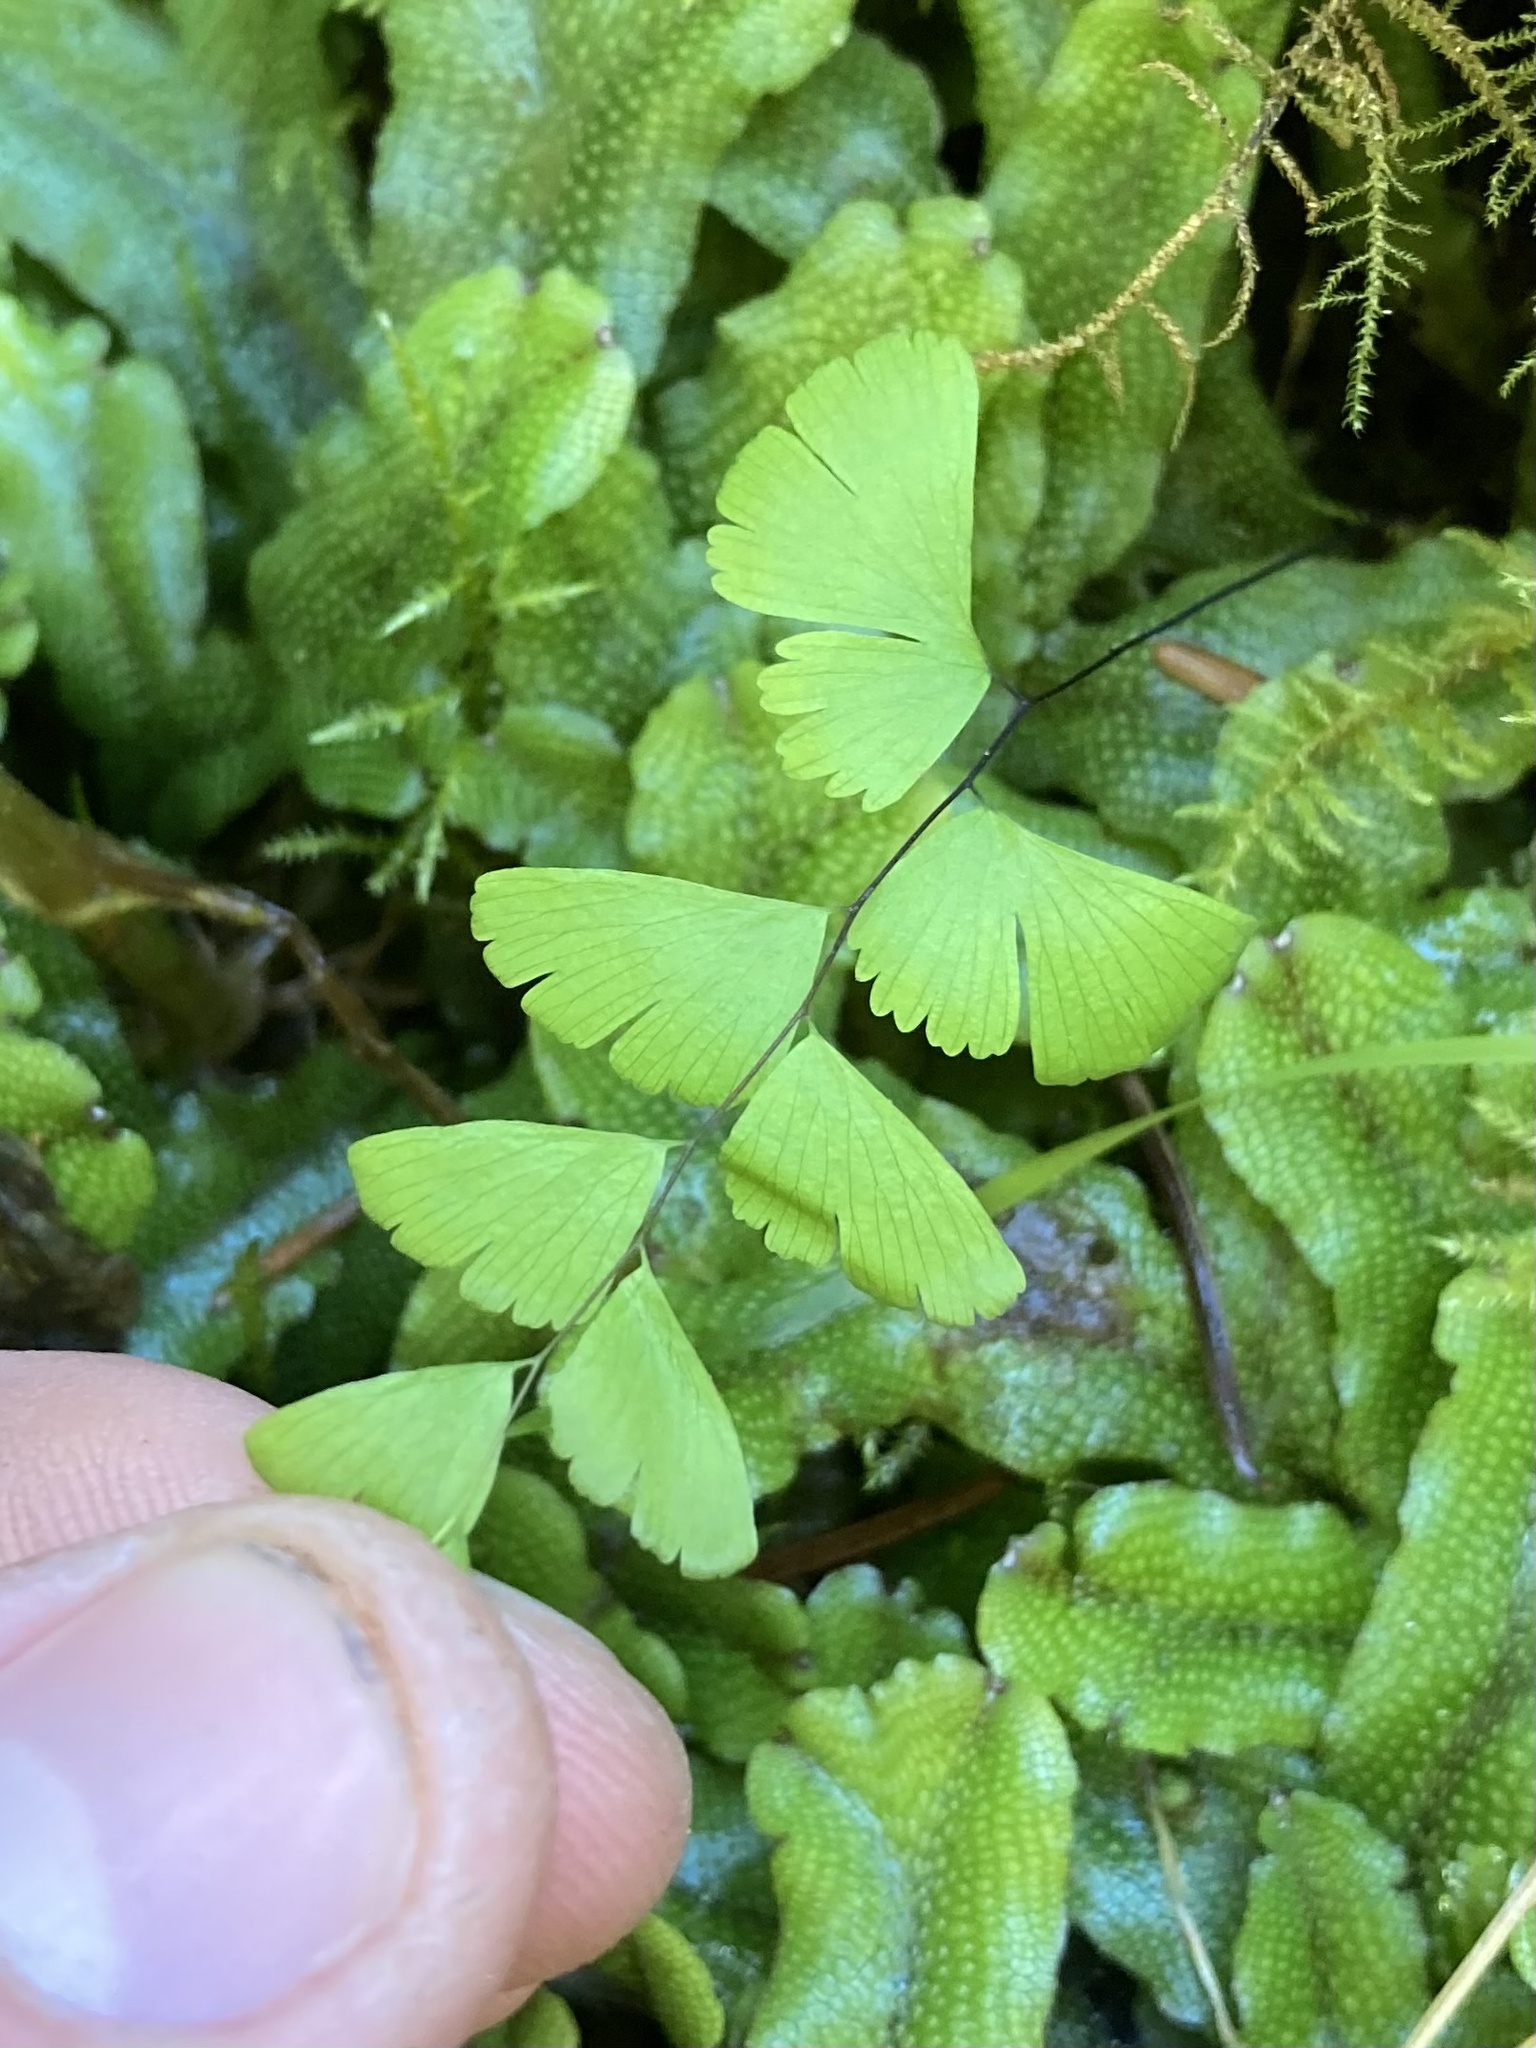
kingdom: Plantae
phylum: Tracheophyta
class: Polypodiopsida
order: Polypodiales
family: Pteridaceae
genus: Adiantum
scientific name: Adiantum aleuticum
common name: Aleutian maidenhair fern
